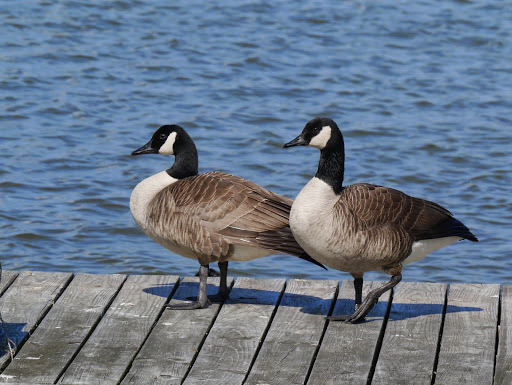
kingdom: Animalia
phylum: Chordata
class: Aves
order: Anseriformes
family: Anatidae
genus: Branta
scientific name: Branta canadensis
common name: Canada goose
